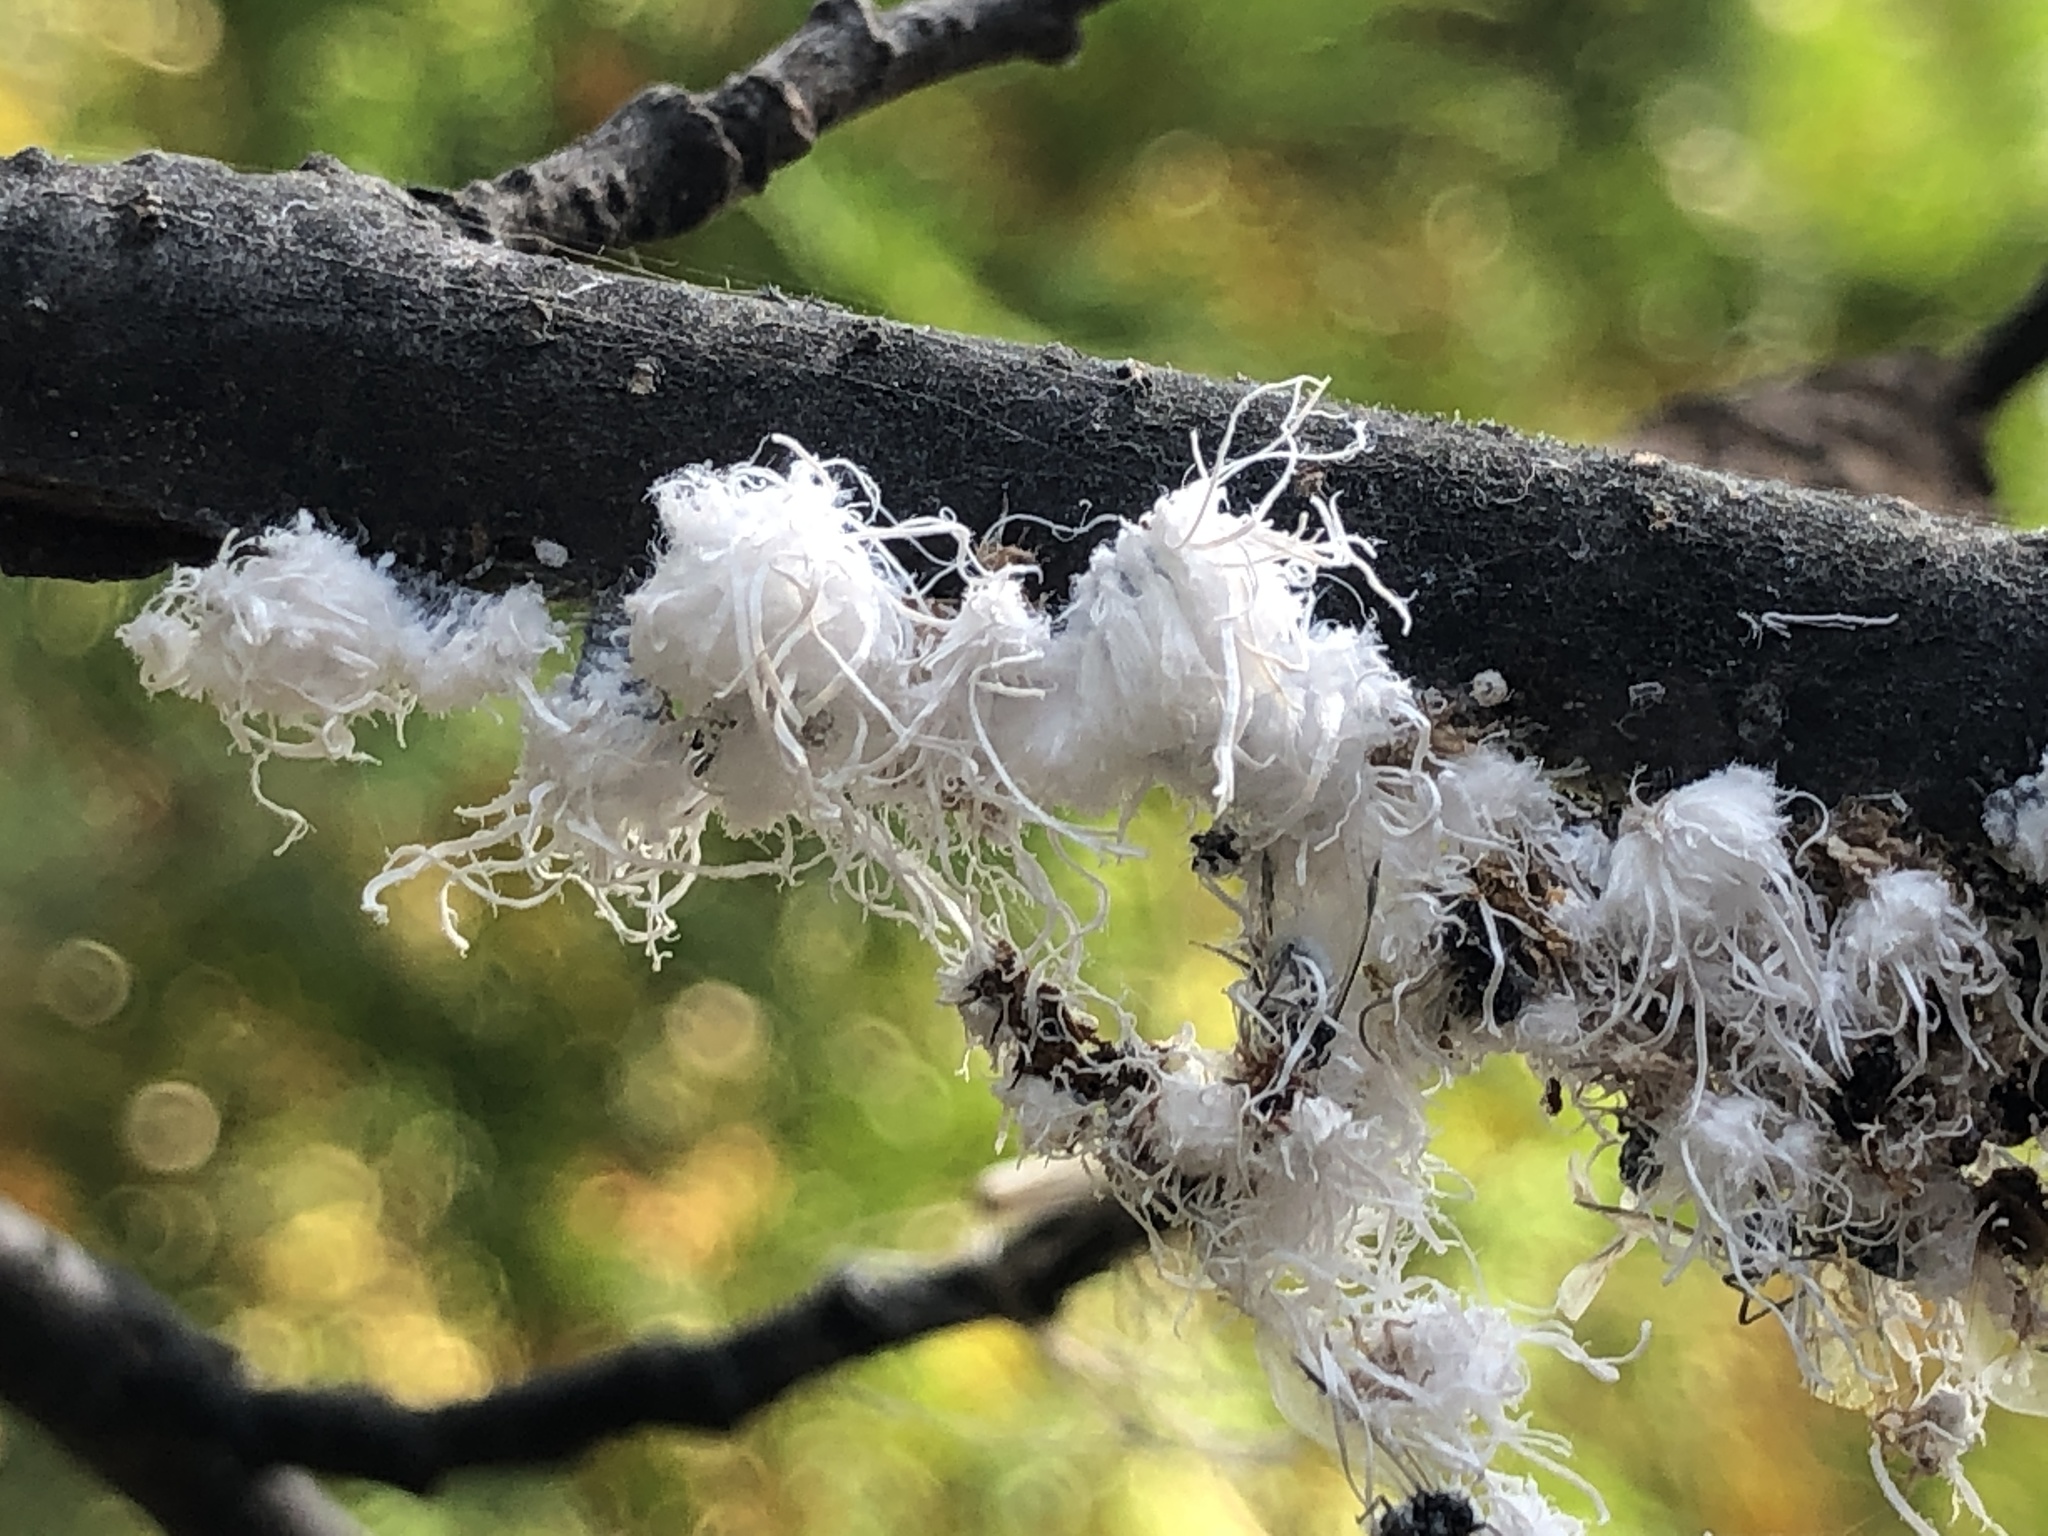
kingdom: Animalia
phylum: Arthropoda
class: Insecta
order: Hemiptera
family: Aphididae
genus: Prociphilus
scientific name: Prociphilus tessellatus
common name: Woolly alder aphid
